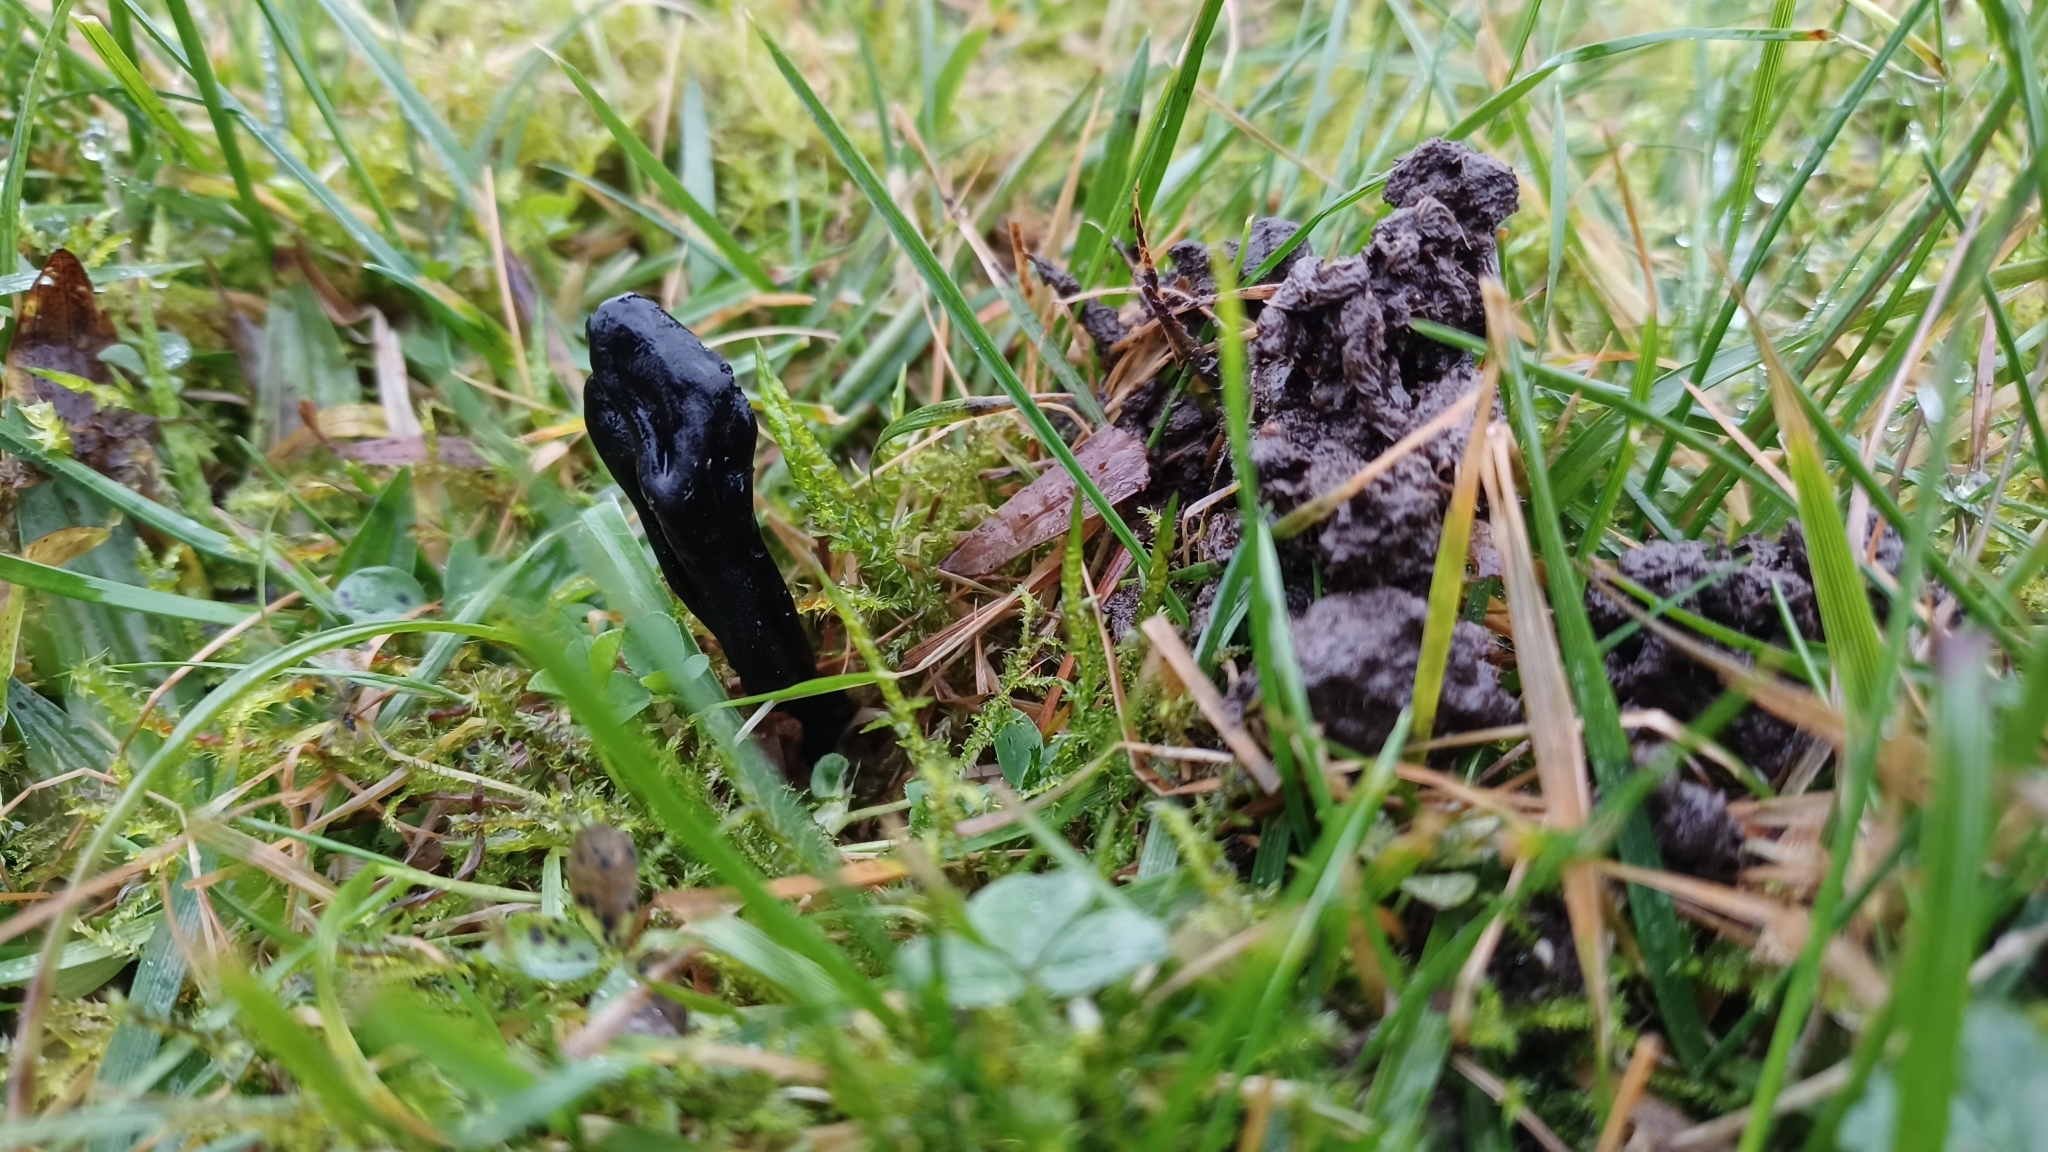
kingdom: Fungi
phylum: Ascomycota
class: Geoglossomycetes
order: Geoglossales
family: Geoglossaceae
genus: Trichoglossum
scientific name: Trichoglossum octopartitum
